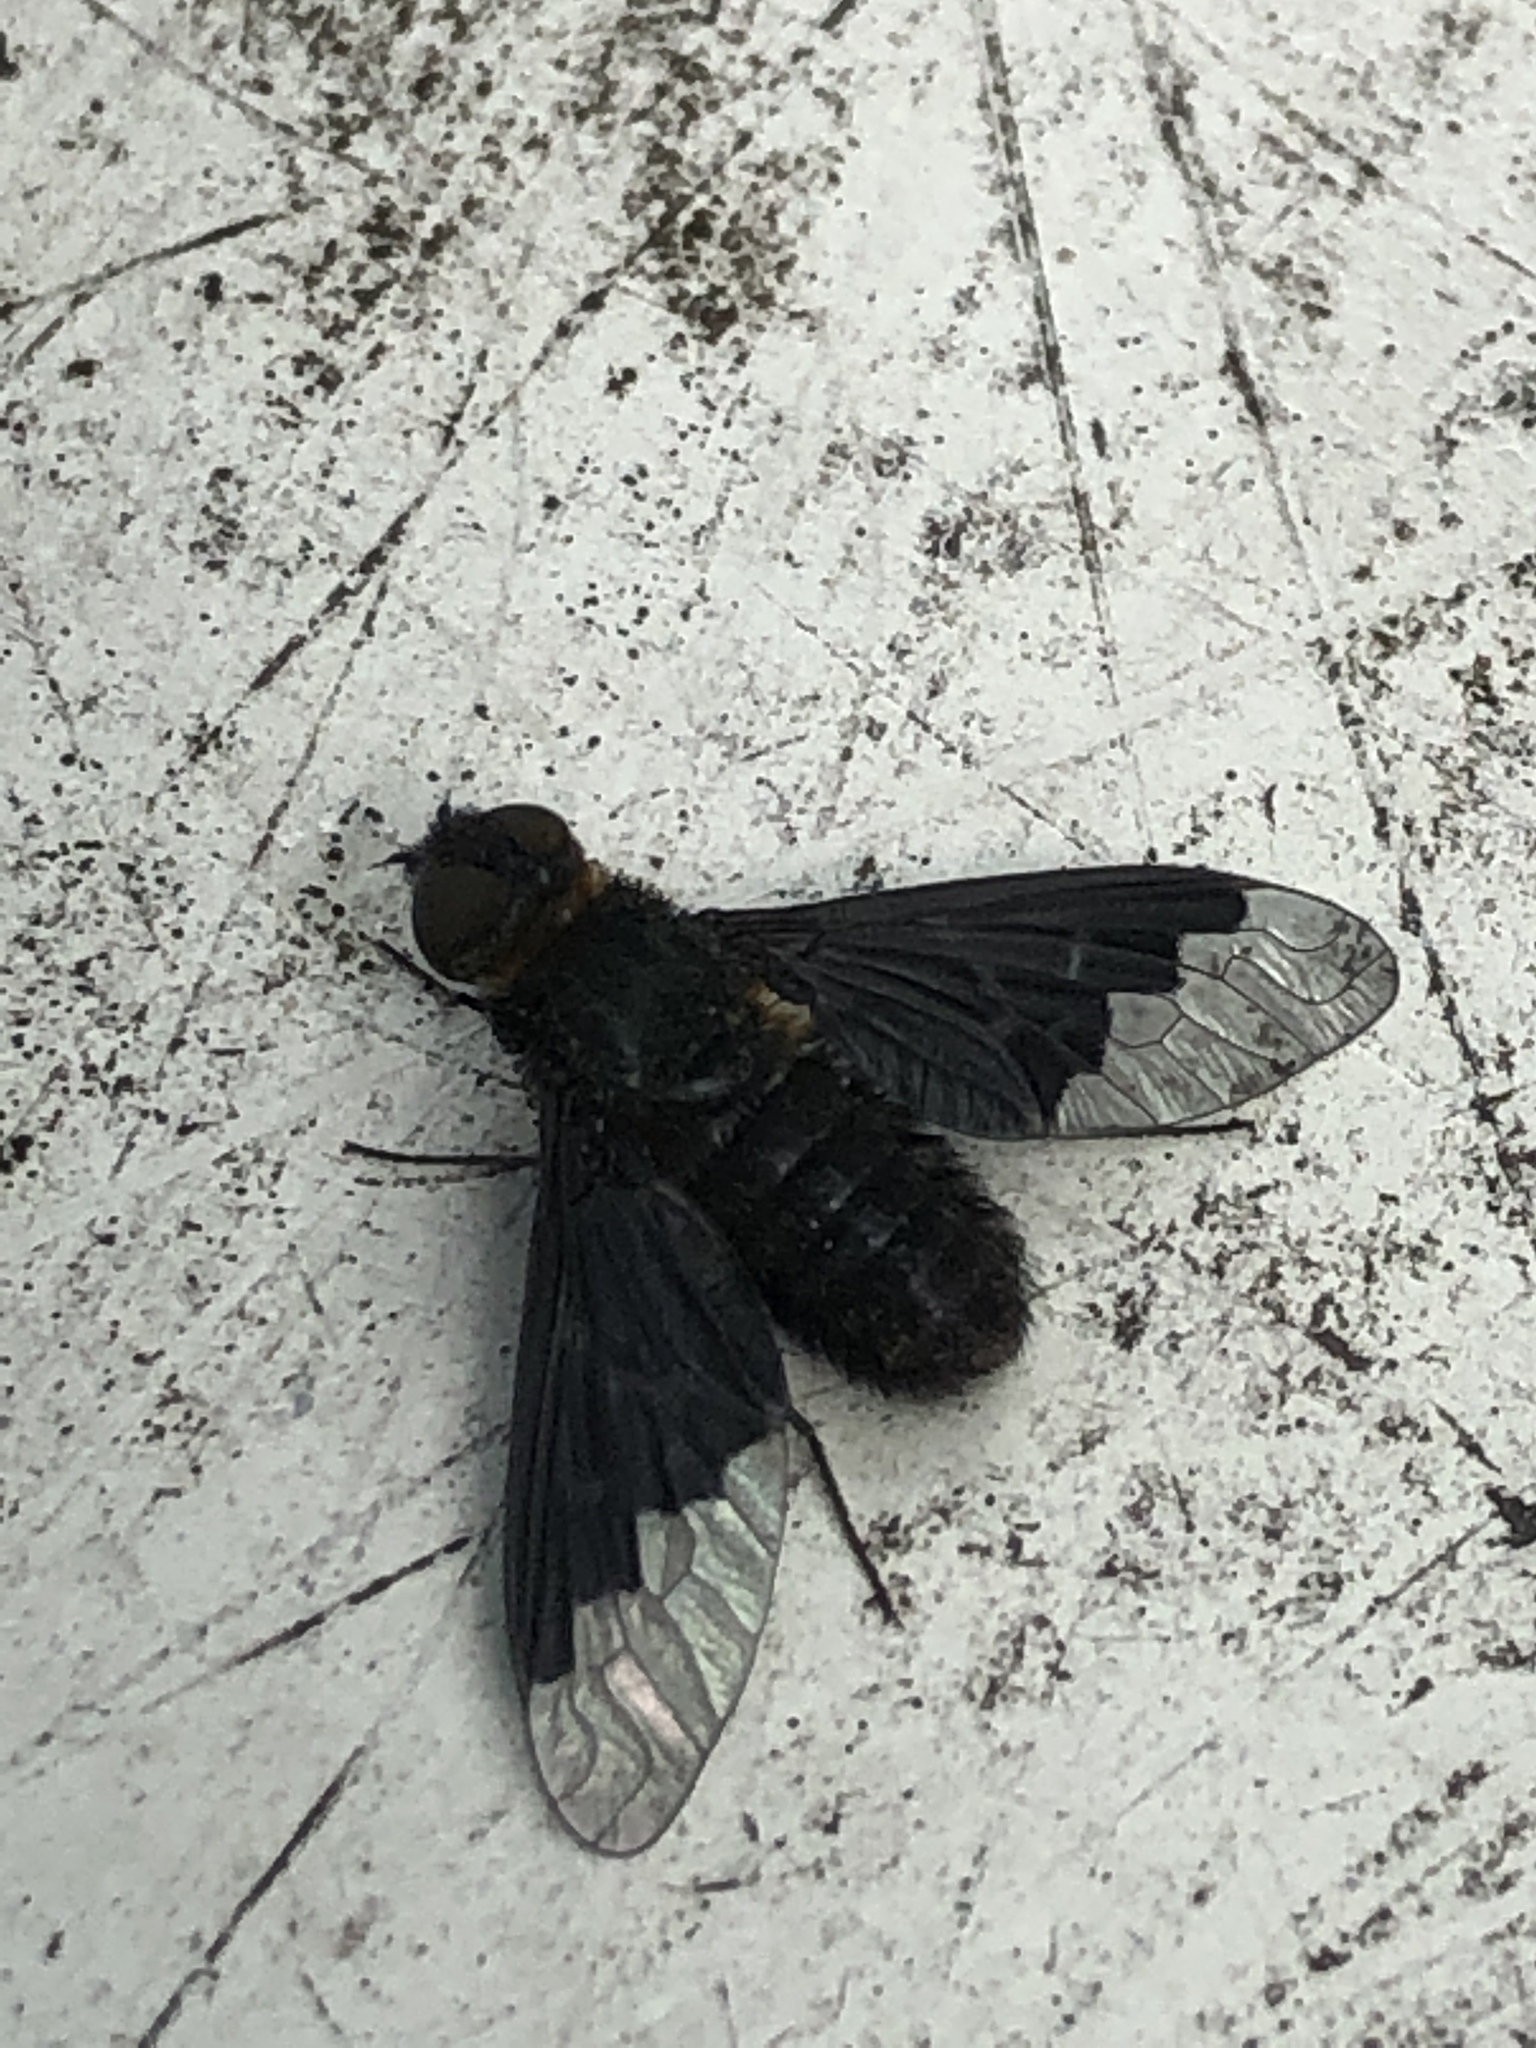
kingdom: Animalia
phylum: Arthropoda
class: Insecta
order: Diptera
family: Bombyliidae
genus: Hemipenthes
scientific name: Hemipenthes morio
